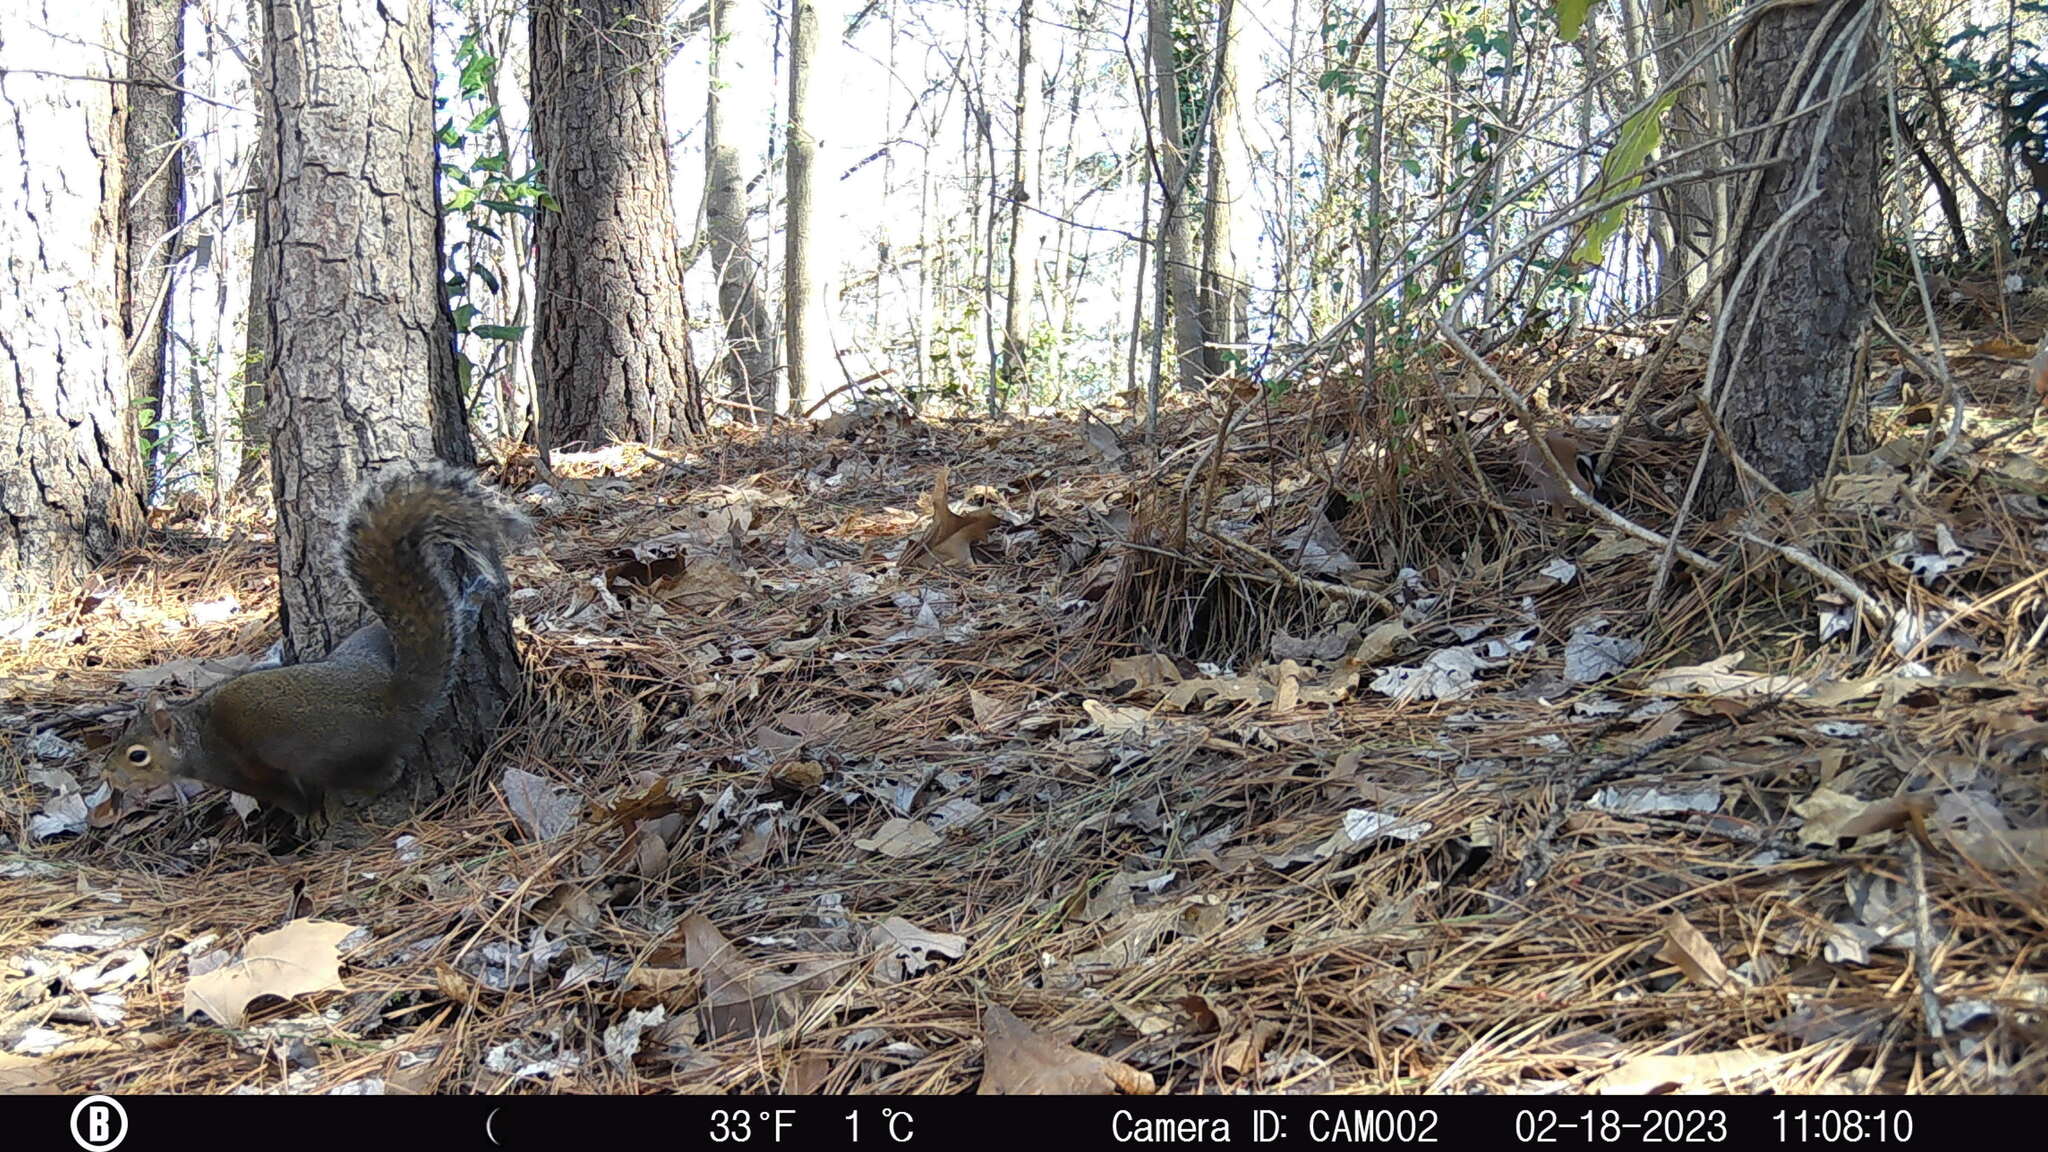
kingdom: Animalia
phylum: Chordata
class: Mammalia
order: Rodentia
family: Sciuridae
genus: Sciurus
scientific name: Sciurus carolinensis
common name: Eastern gray squirrel
